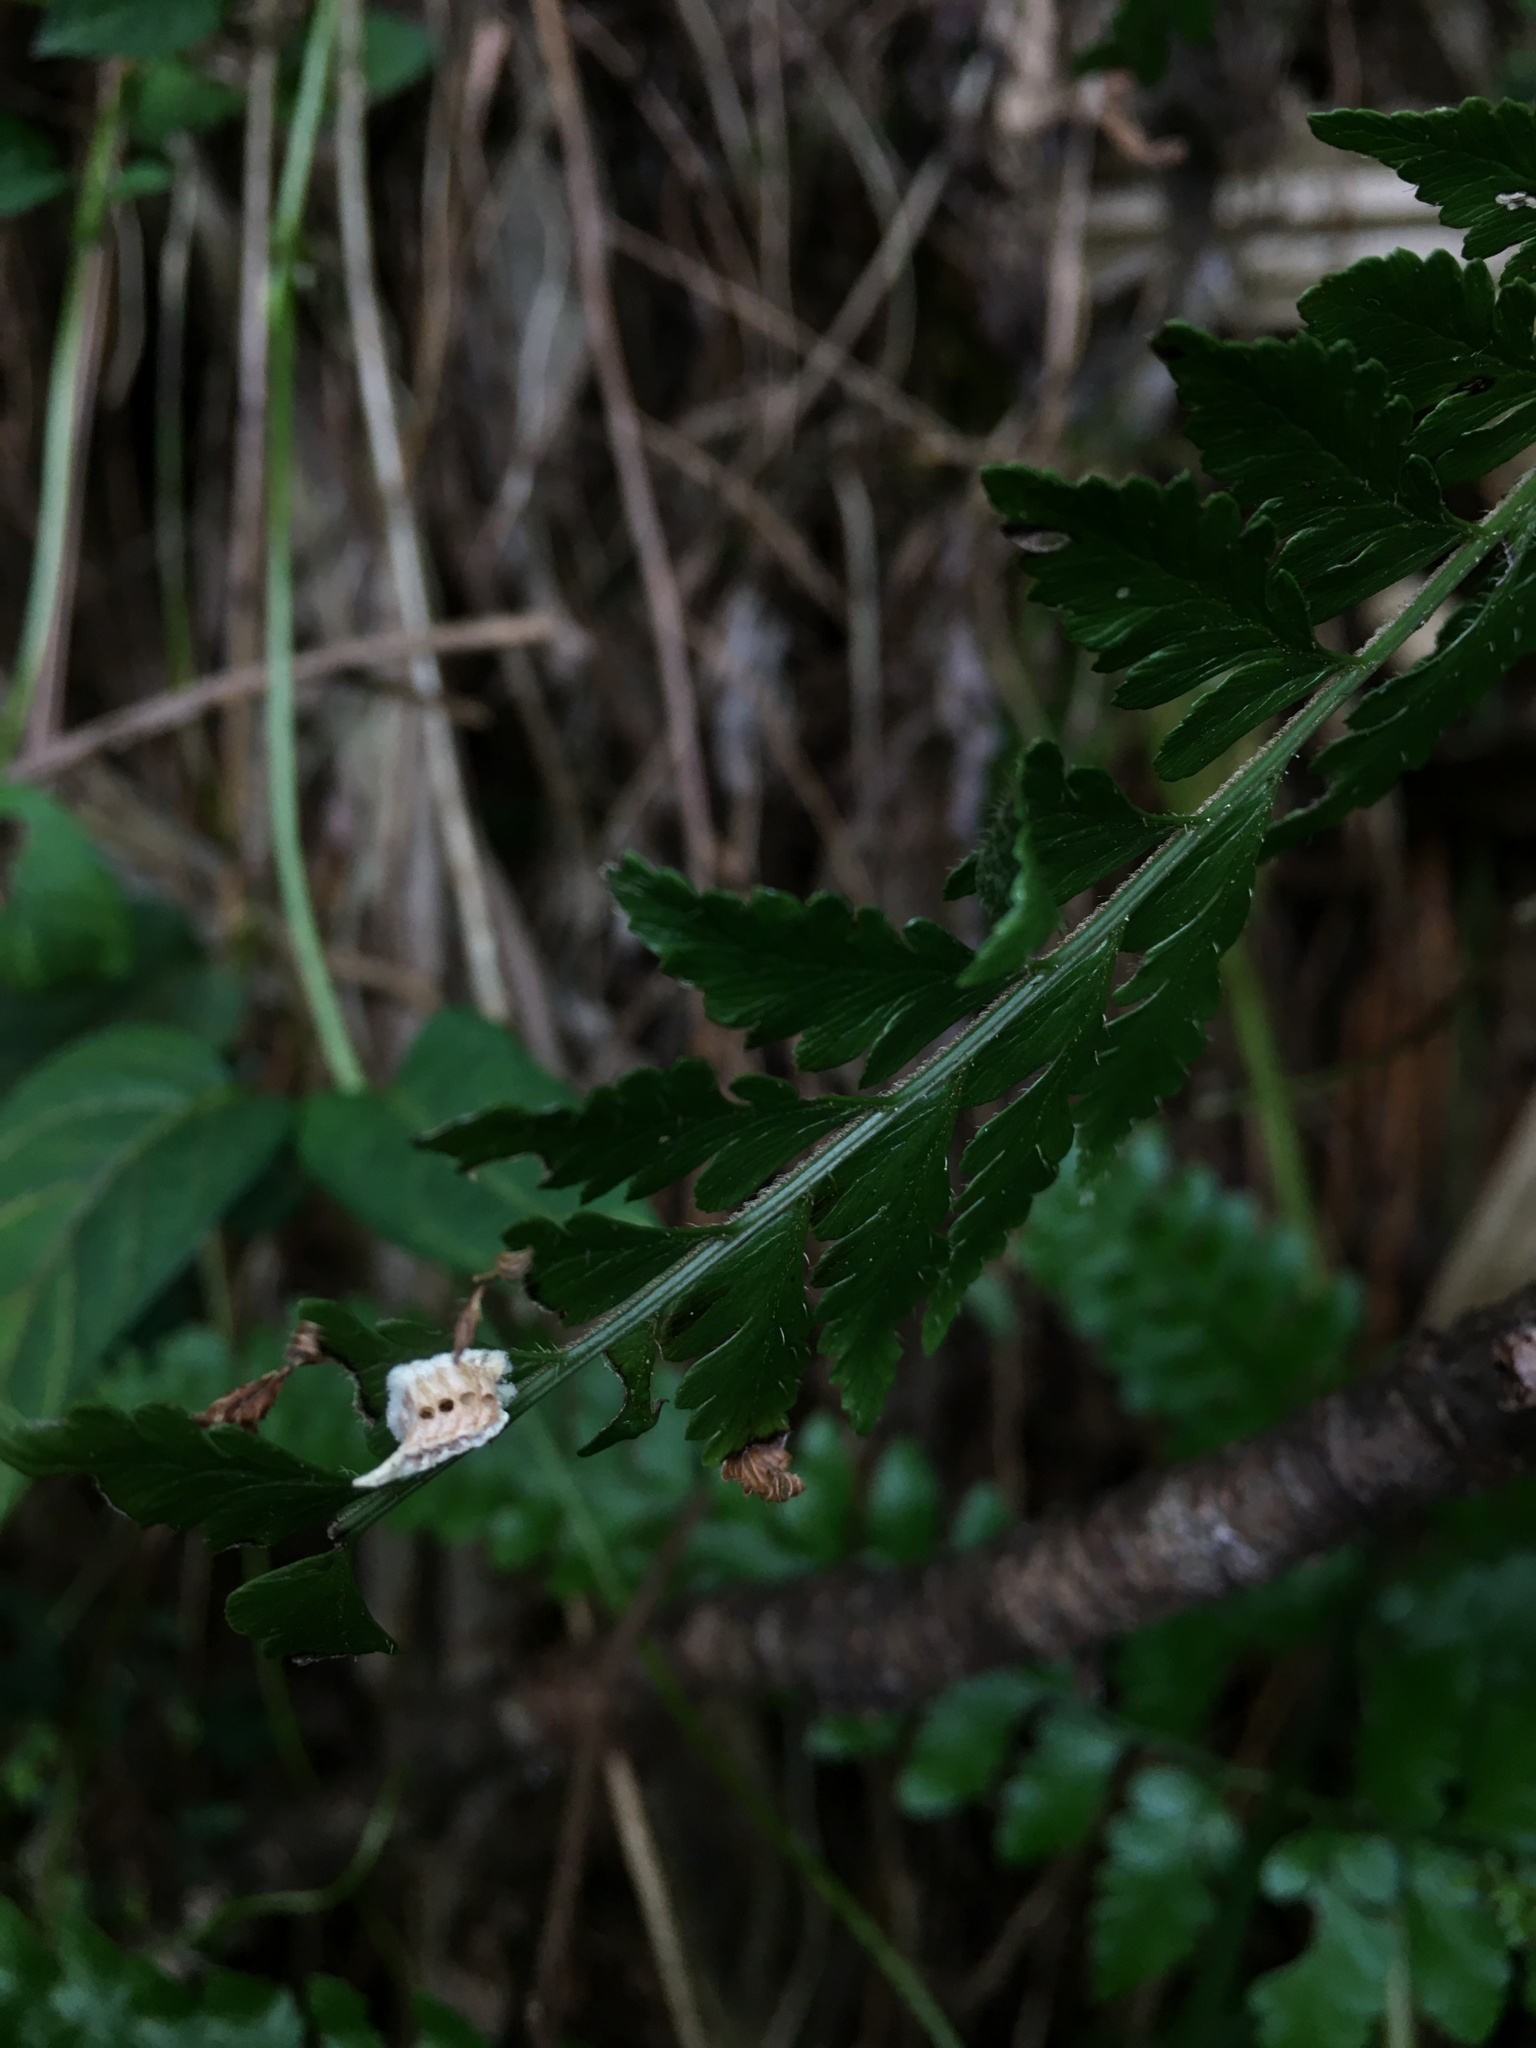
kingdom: Animalia
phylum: Arthropoda
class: Insecta
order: Mantodea
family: Gonypetidae
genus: Amantis
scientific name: Amantis nawai
